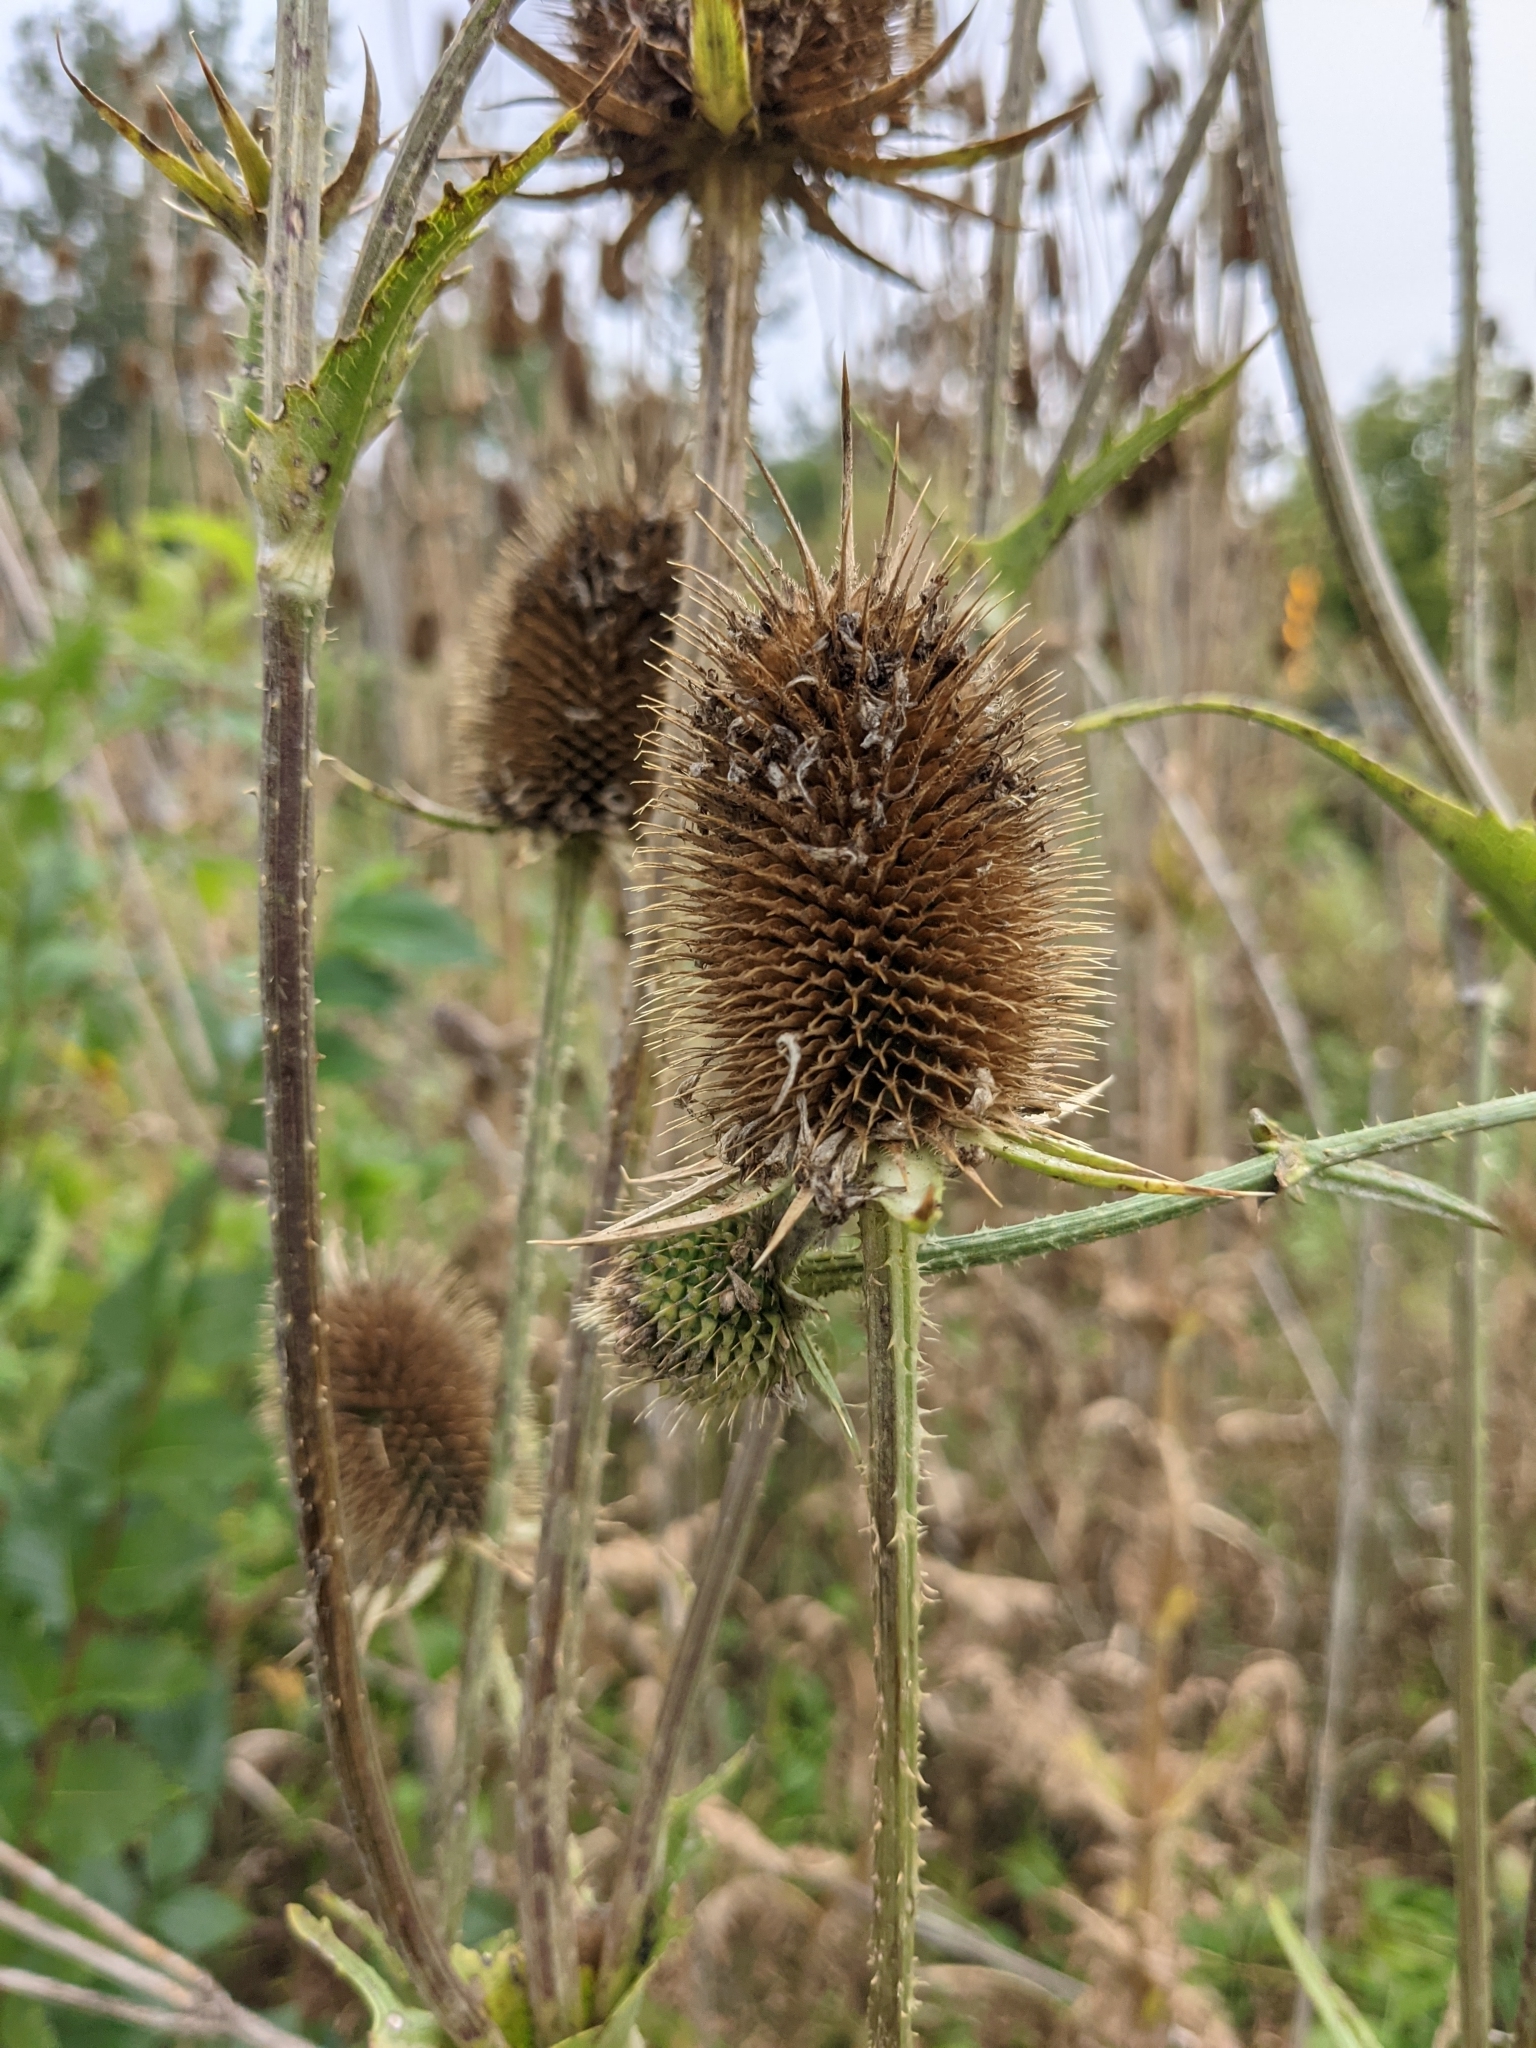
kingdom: Plantae
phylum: Tracheophyta
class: Magnoliopsida
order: Dipsacales
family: Caprifoliaceae
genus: Dipsacus
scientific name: Dipsacus laciniatus
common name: Cut-leaved teasel
